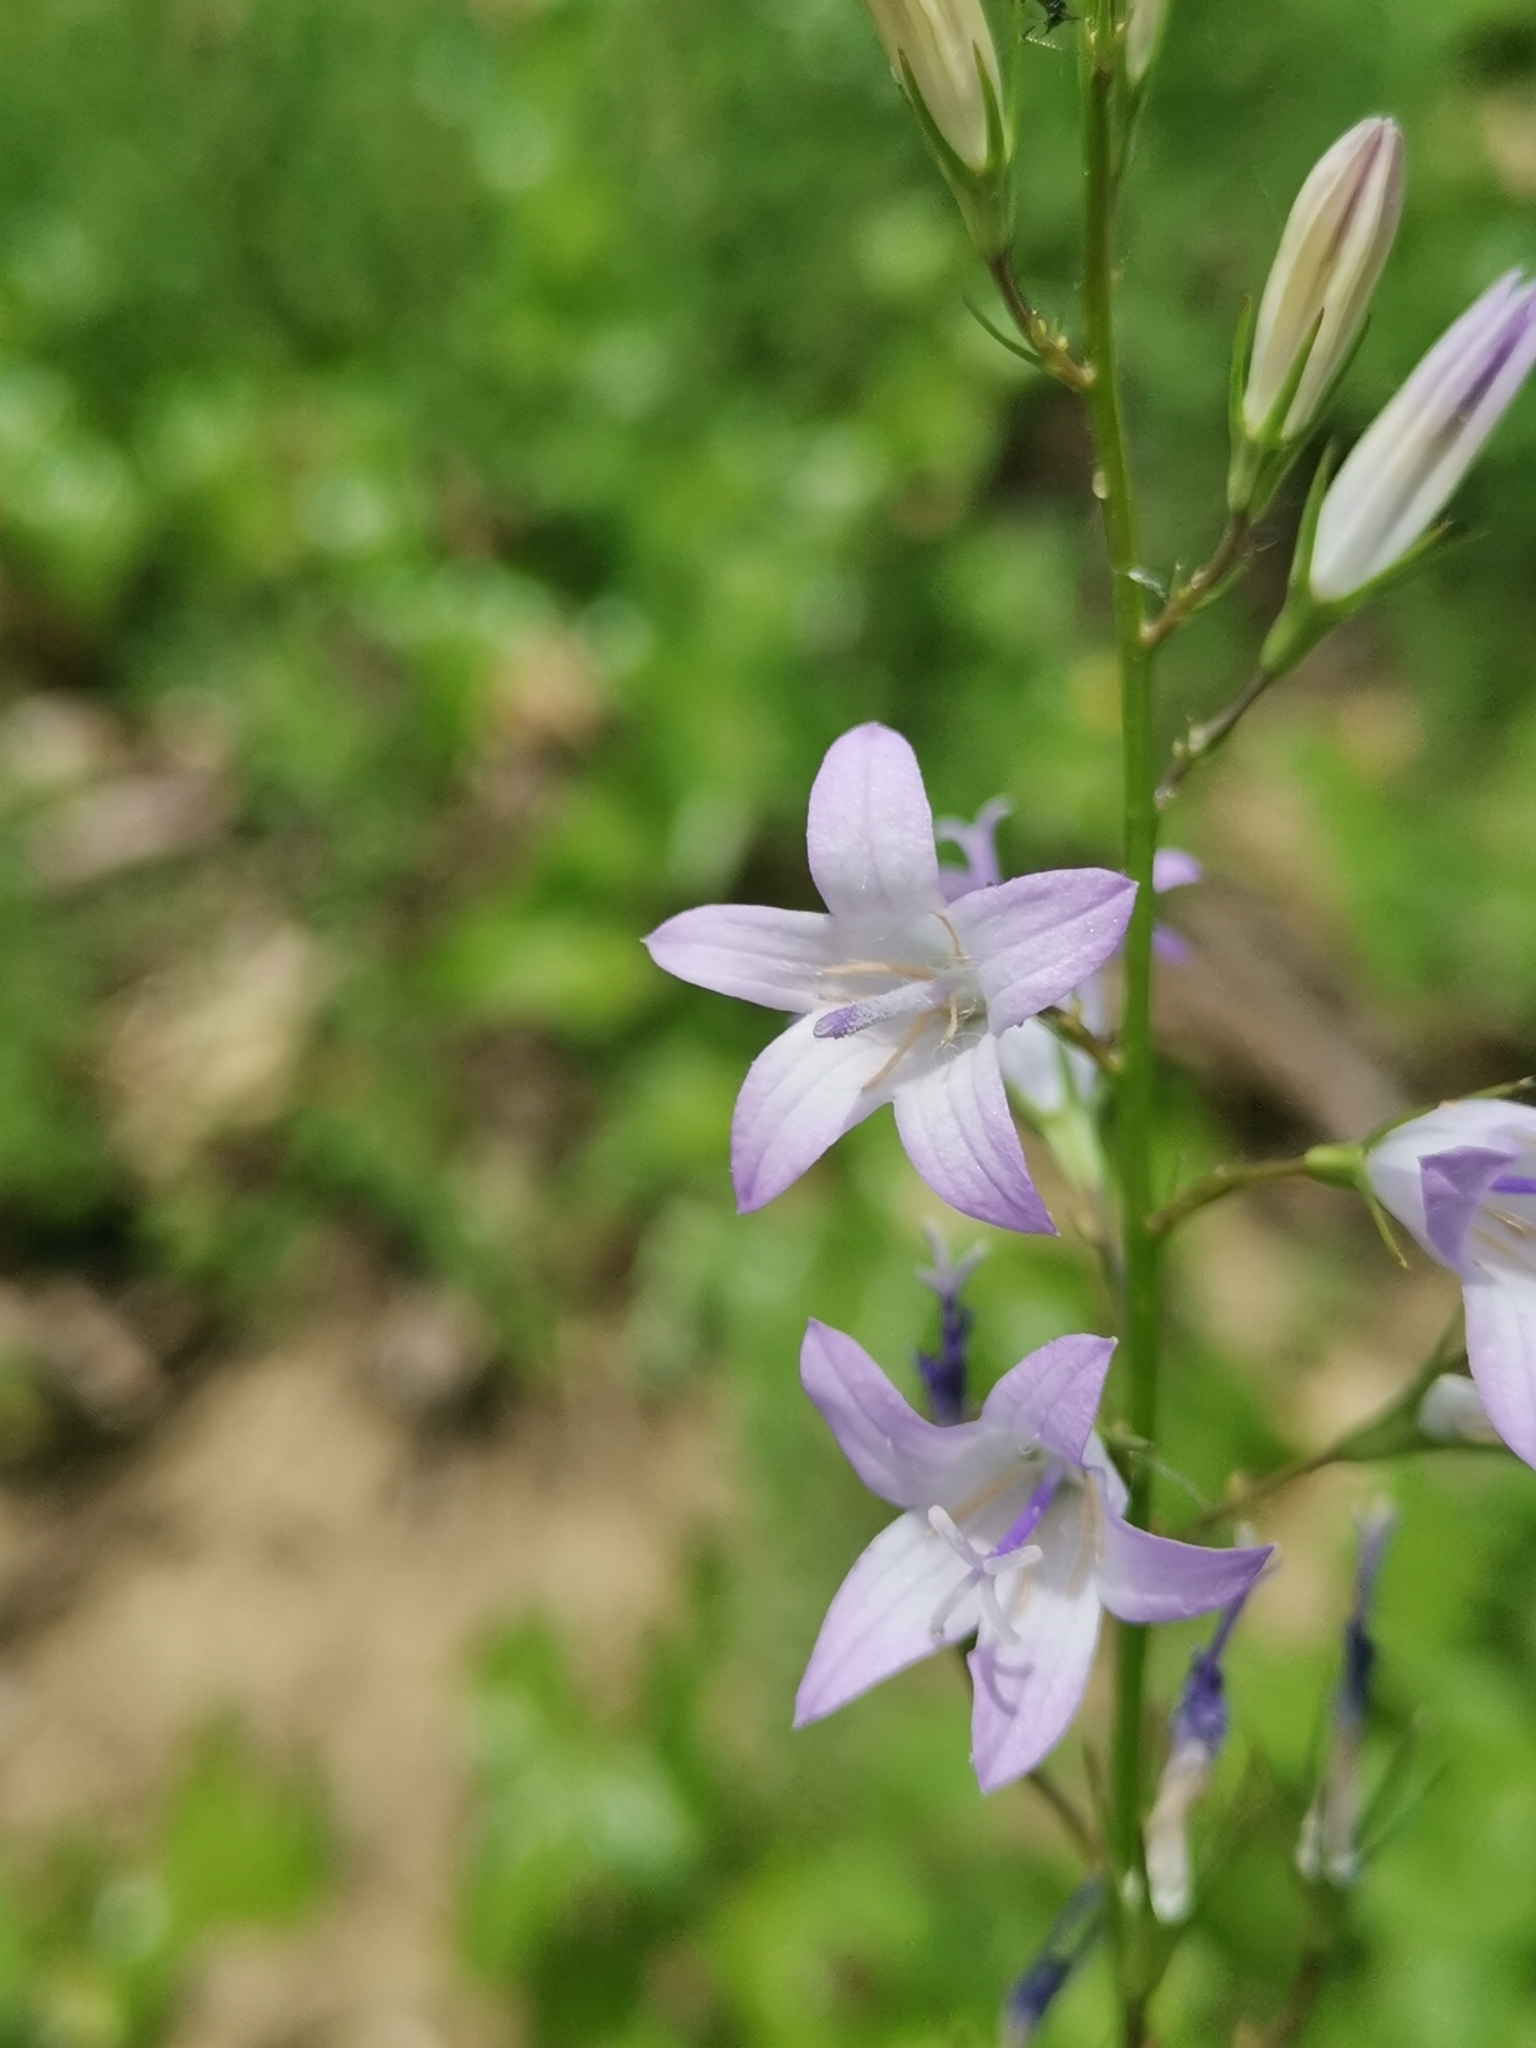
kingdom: Plantae
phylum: Tracheophyta
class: Magnoliopsida
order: Asterales
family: Campanulaceae
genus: Campanula
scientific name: Campanula rapunculus
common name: Rampion bellflower
